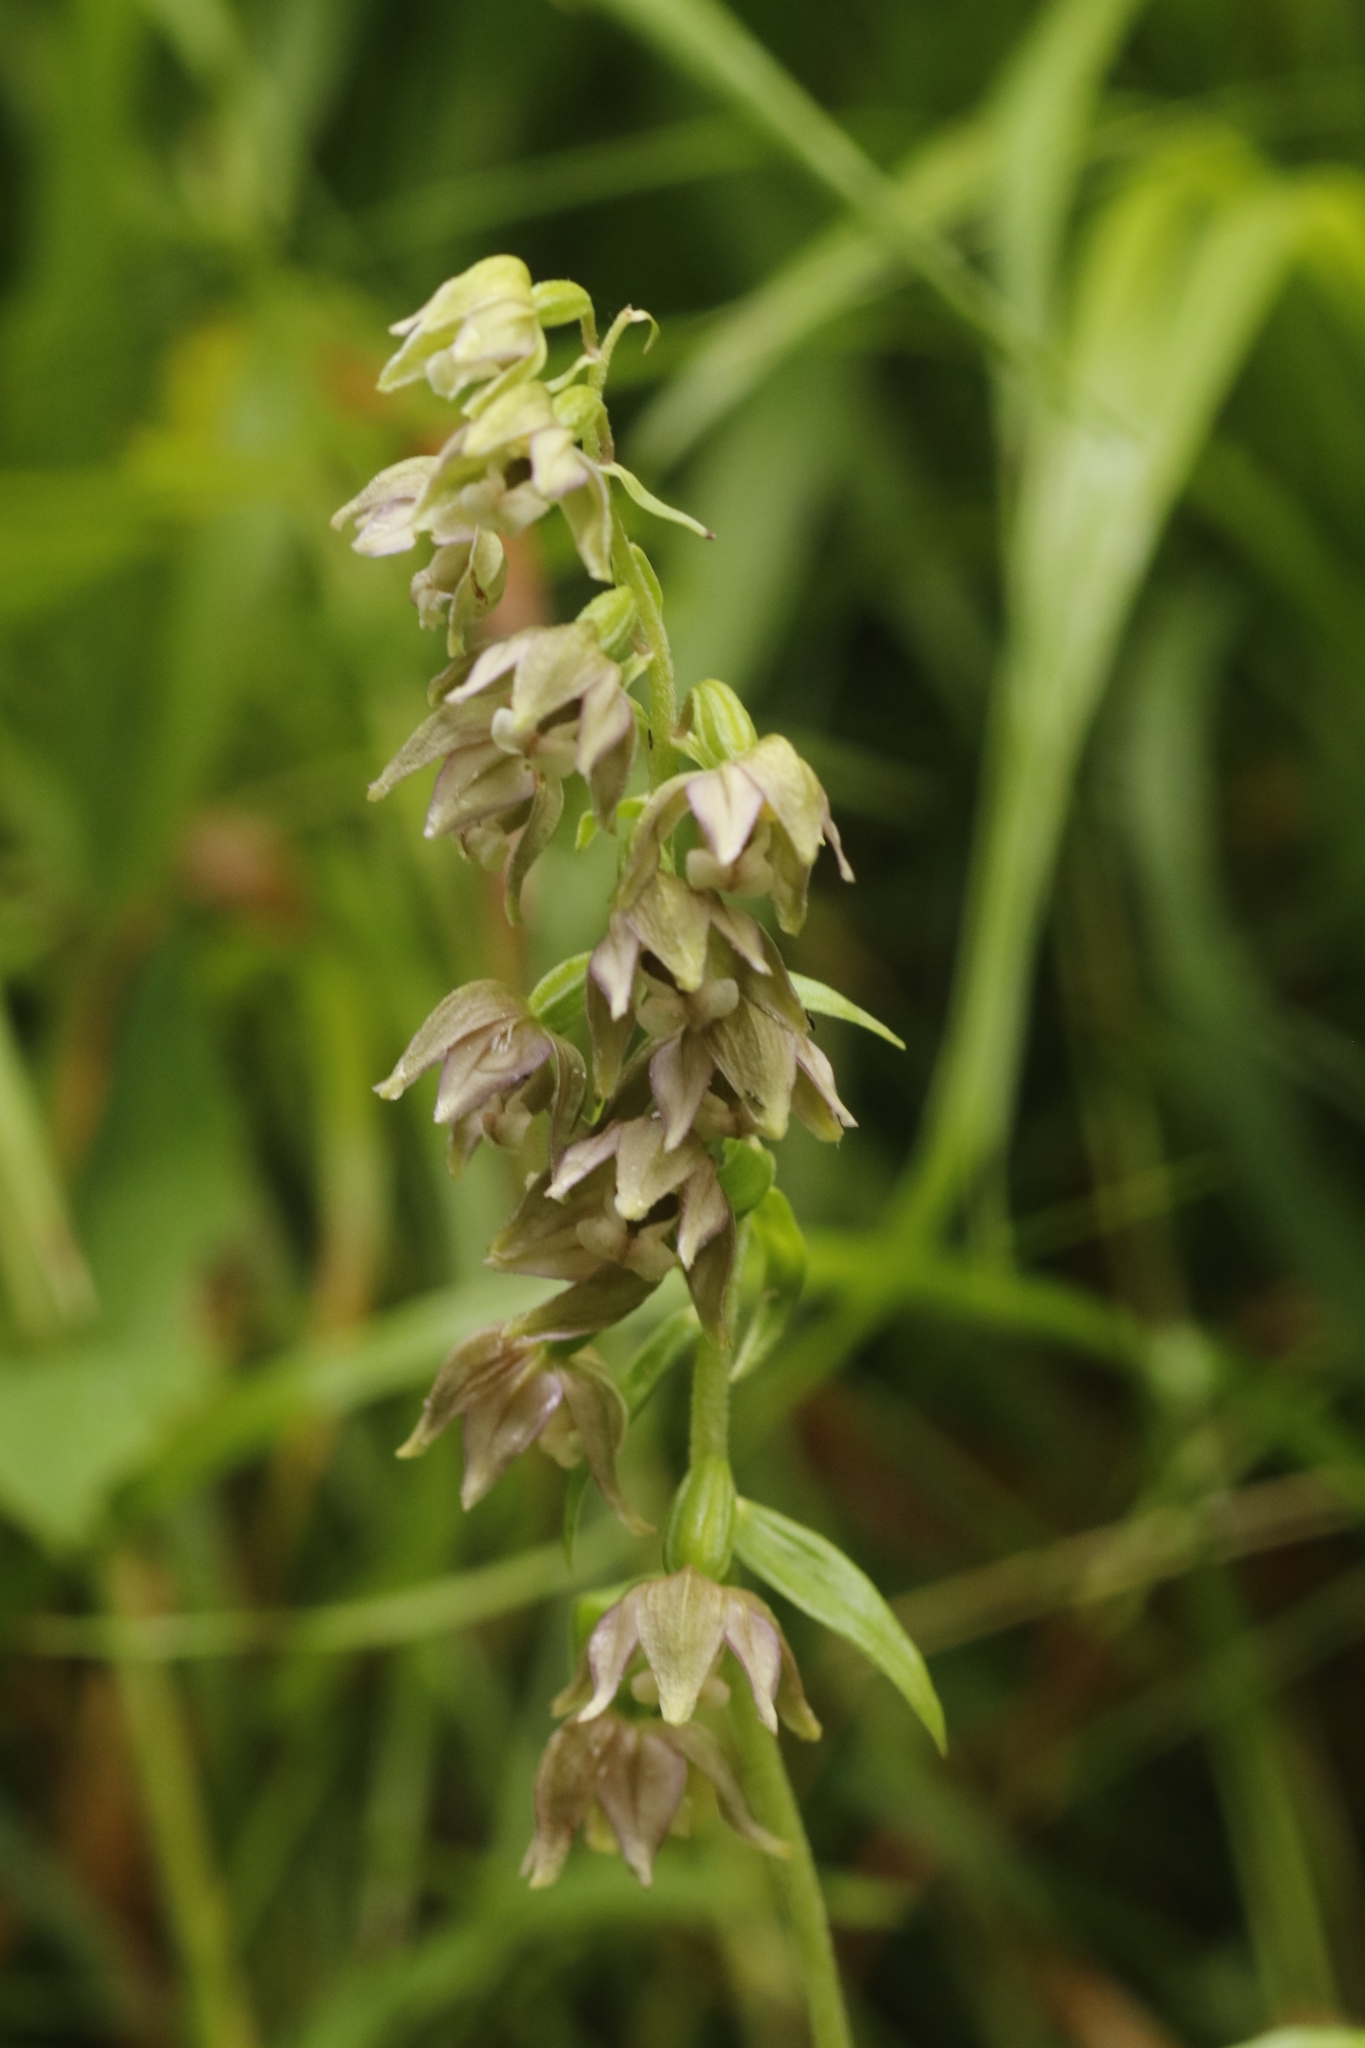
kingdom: Plantae
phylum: Tracheophyta
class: Liliopsida
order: Asparagales
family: Orchidaceae
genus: Epipactis
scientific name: Epipactis helleborine
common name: Broad-leaved helleborine
